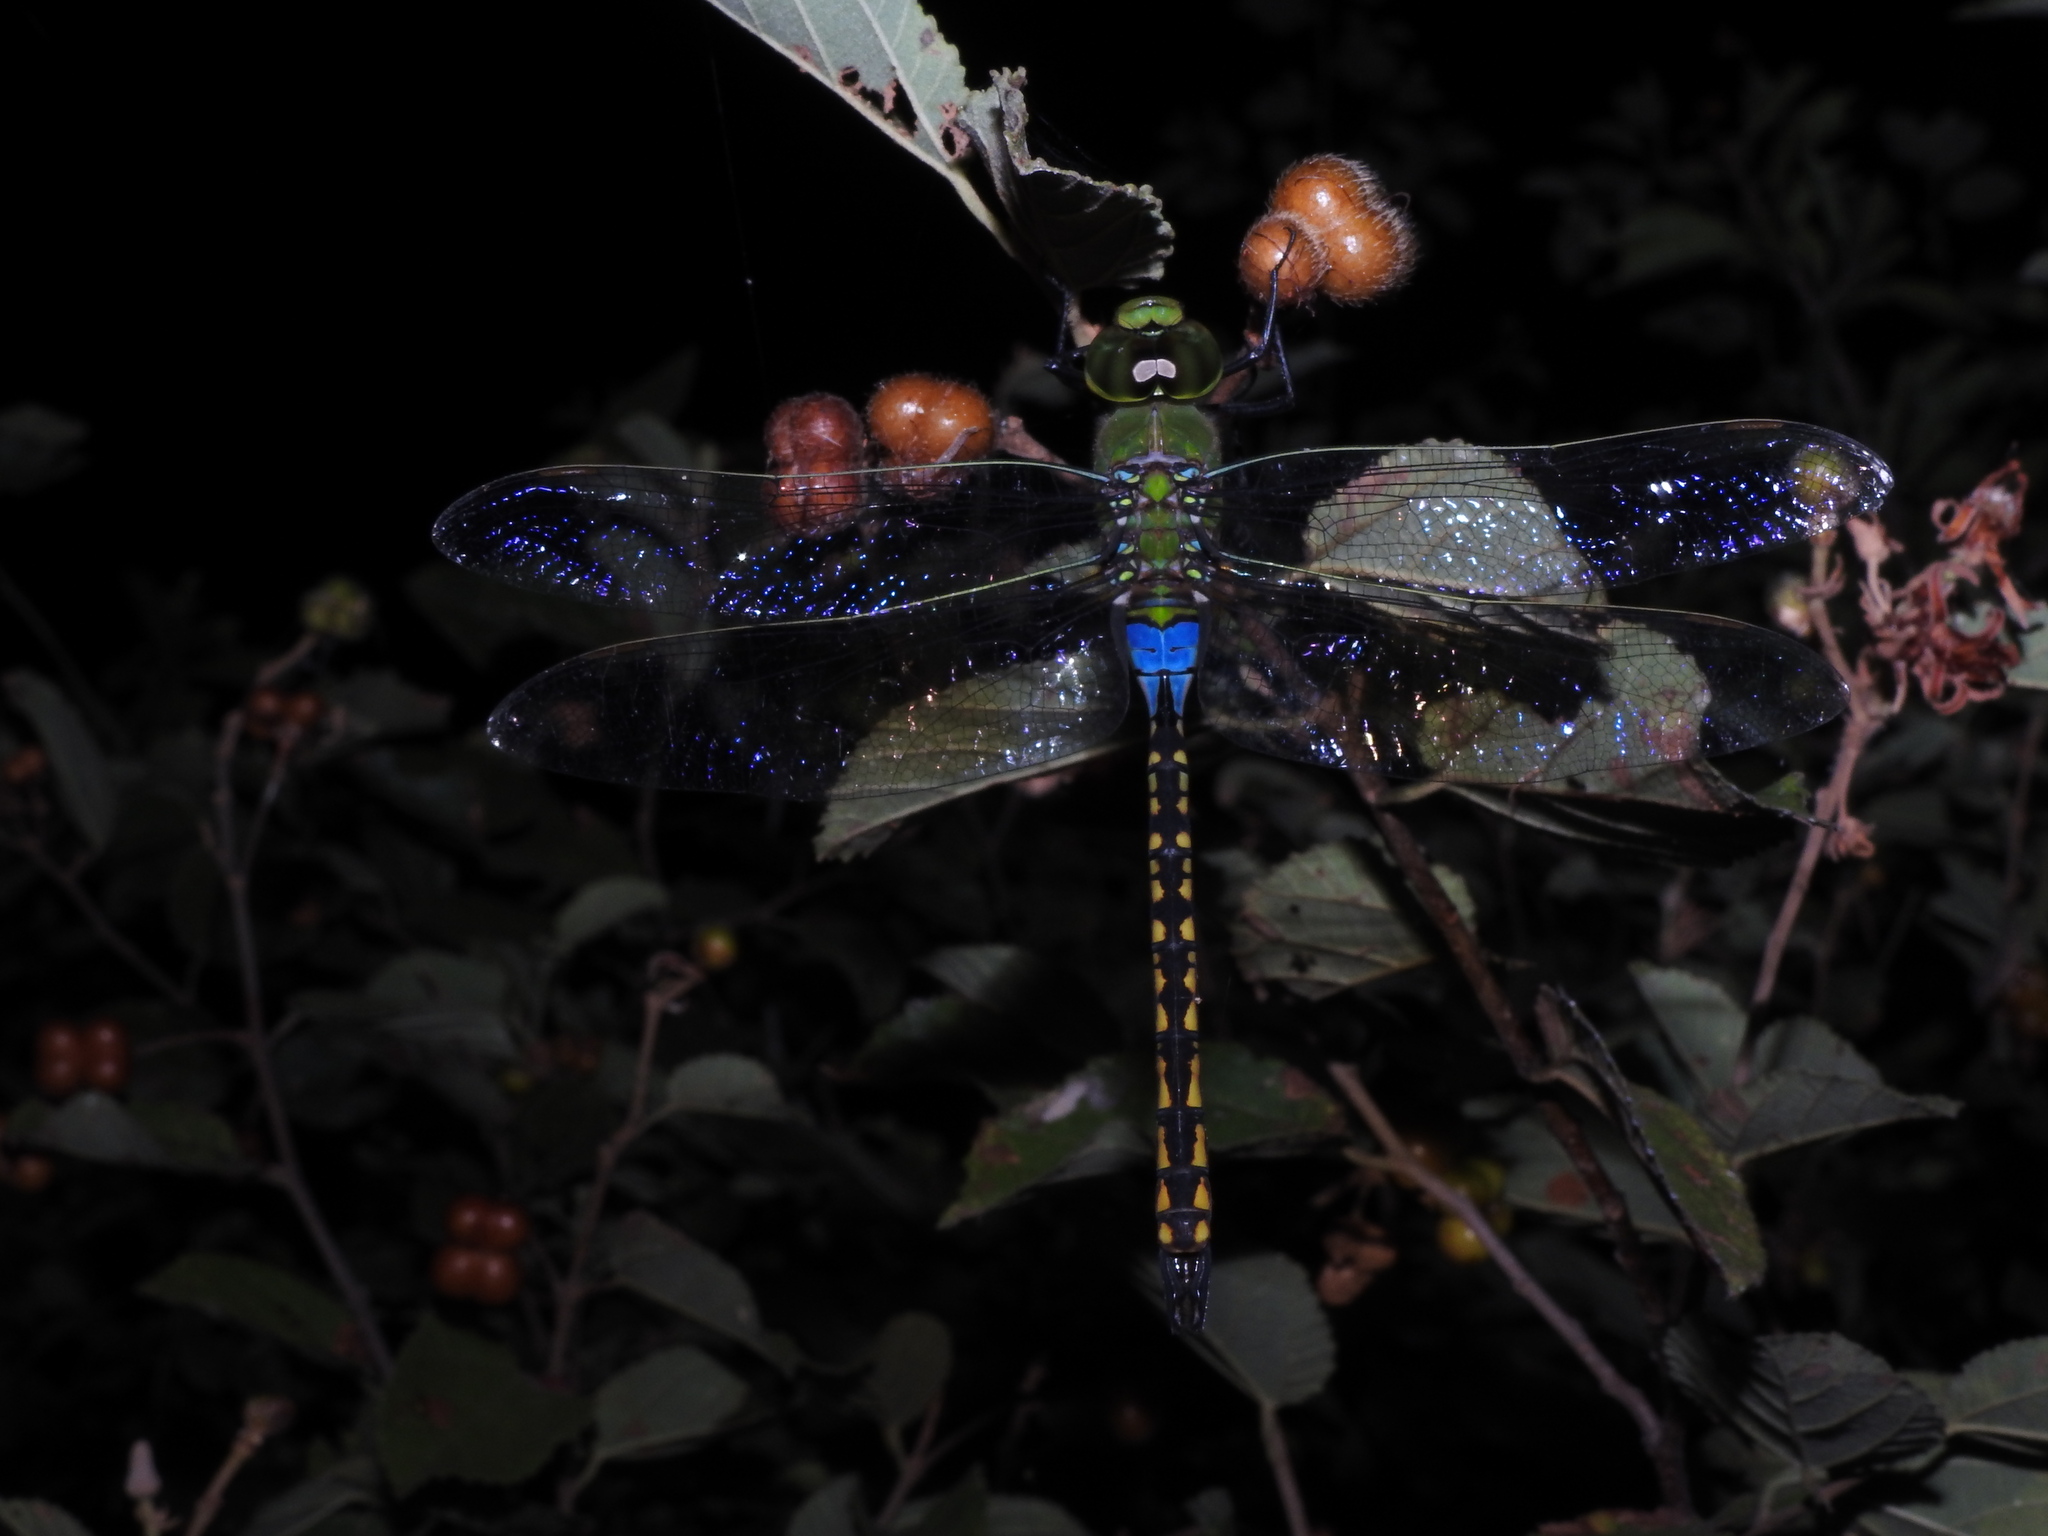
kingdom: Animalia
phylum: Arthropoda
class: Insecta
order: Odonata
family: Aeshnidae
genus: Anax
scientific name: Anax indicus
